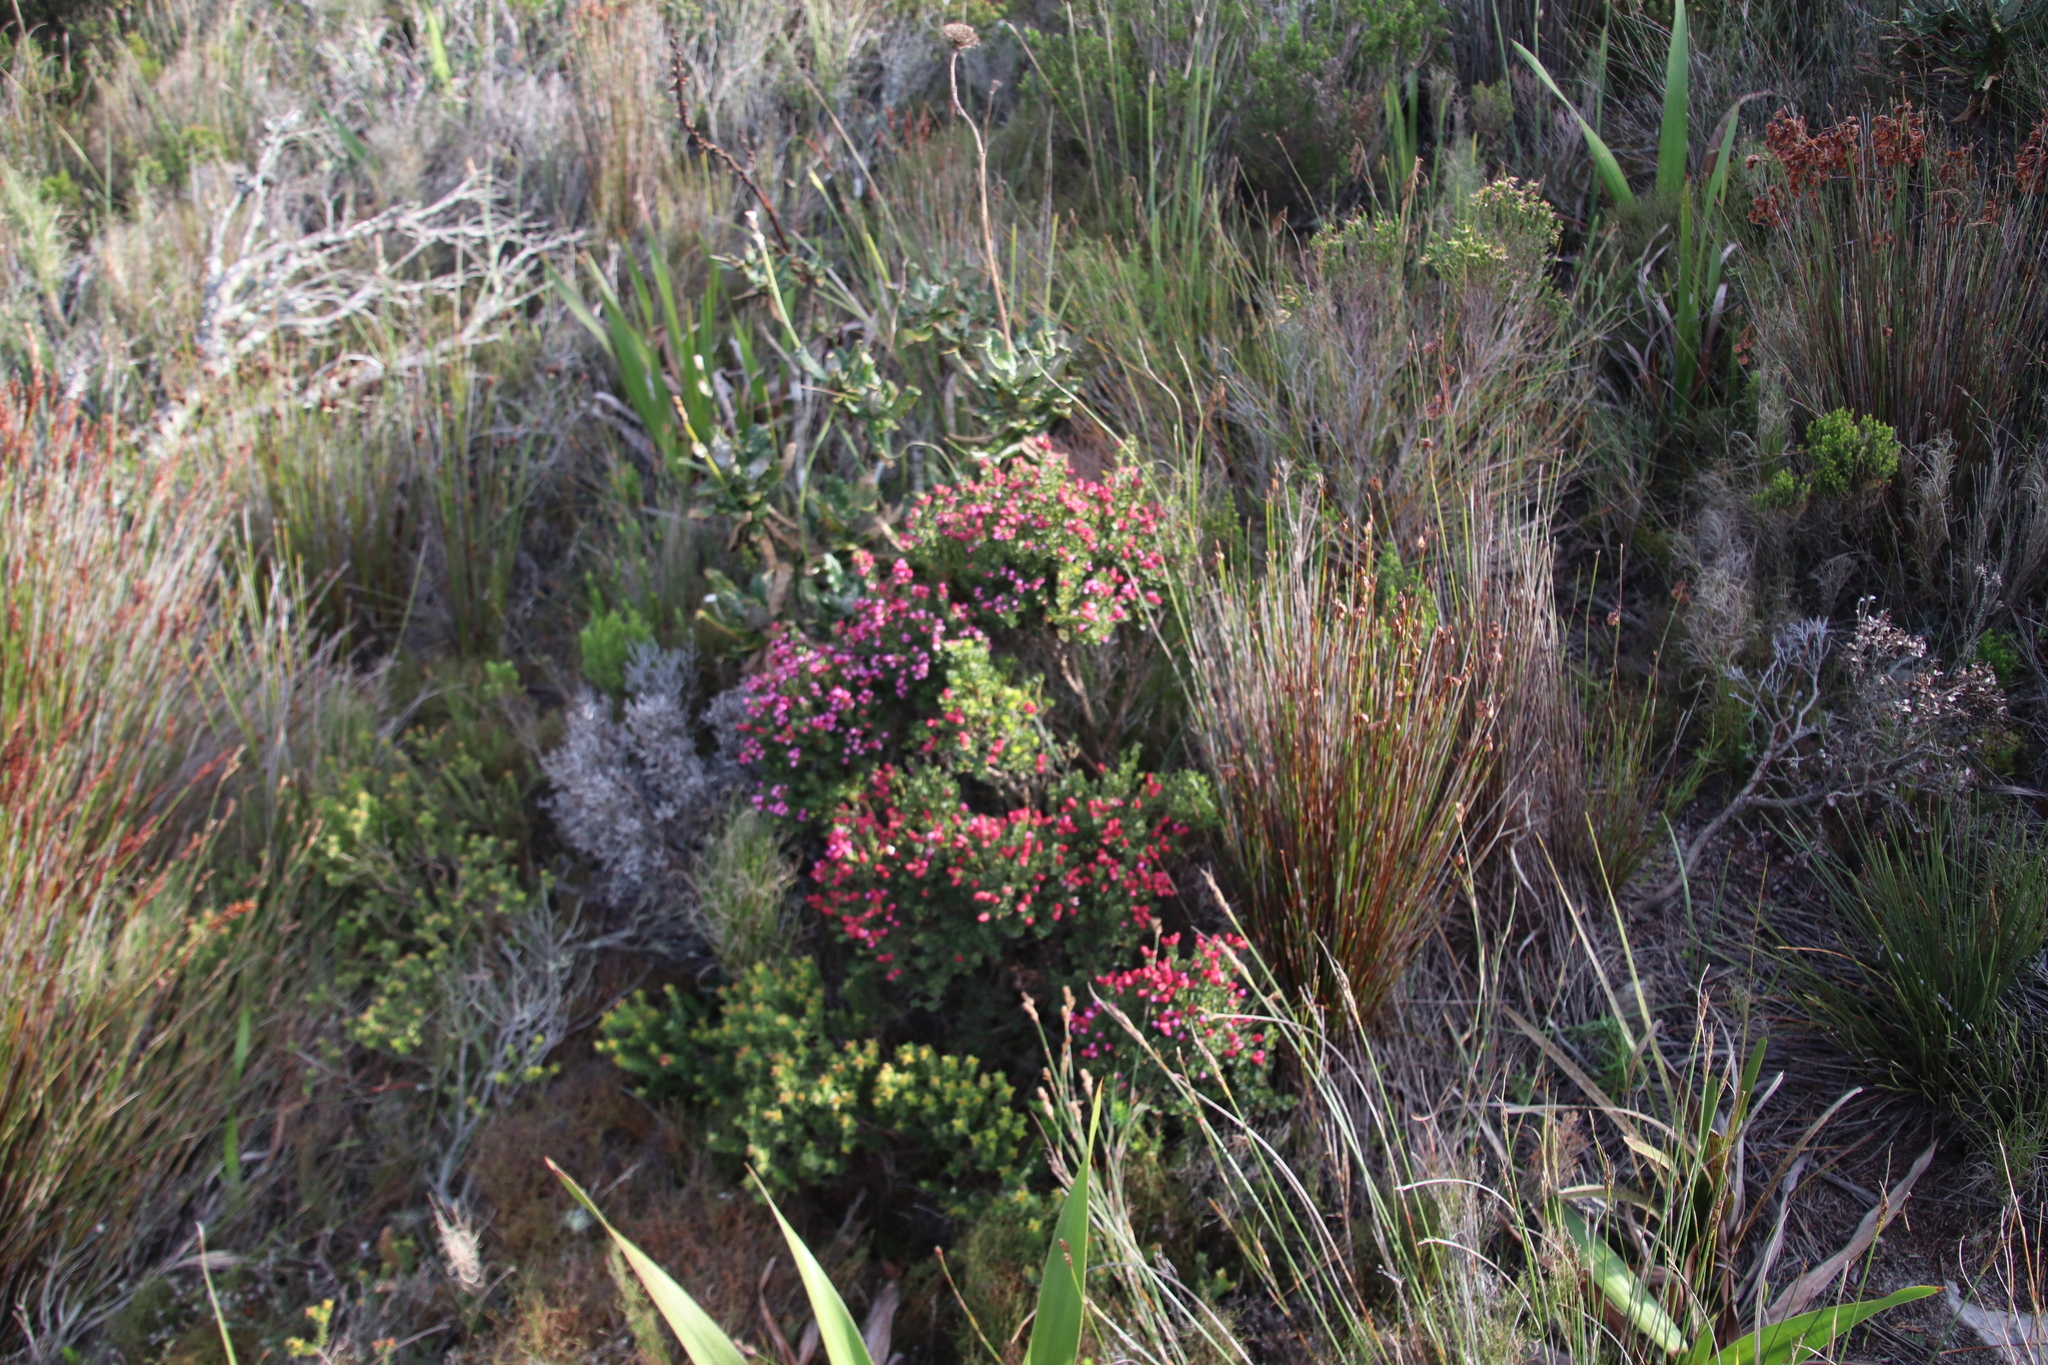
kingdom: Plantae
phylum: Tracheophyta
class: Magnoliopsida
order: Myrtales
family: Penaeaceae
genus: Brachysiphon
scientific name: Brachysiphon fucatus
